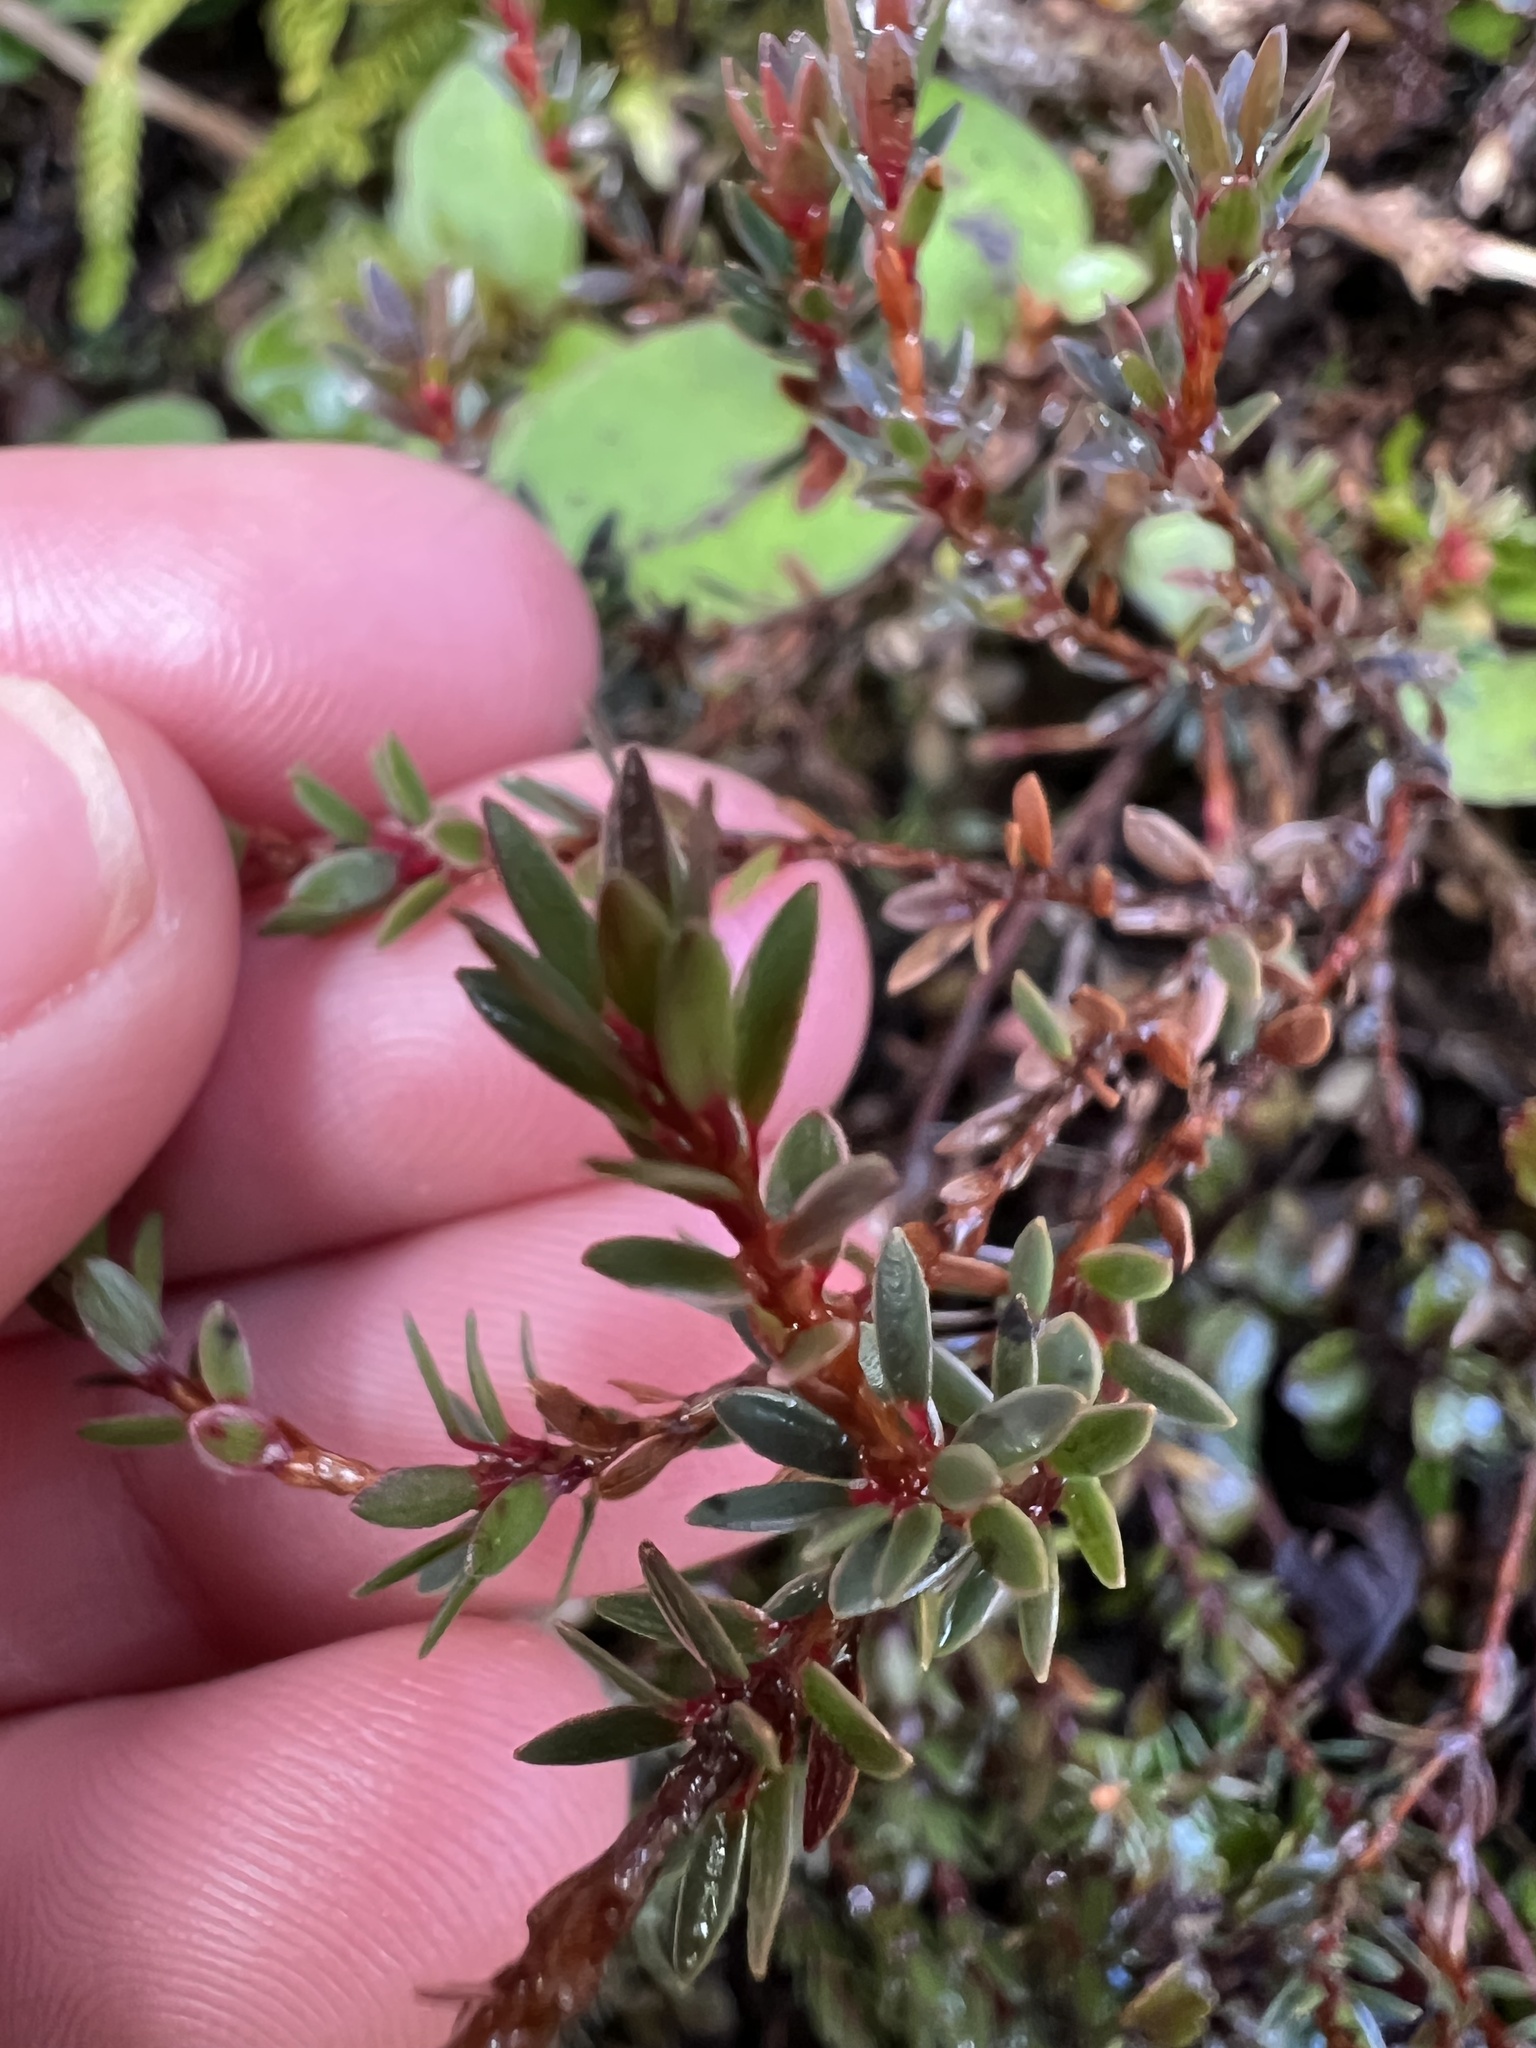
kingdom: Plantae
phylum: Tracheophyta
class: Magnoliopsida
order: Ericales
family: Ericaceae
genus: Pentachondra
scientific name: Pentachondra pumila
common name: Carpet-heath
